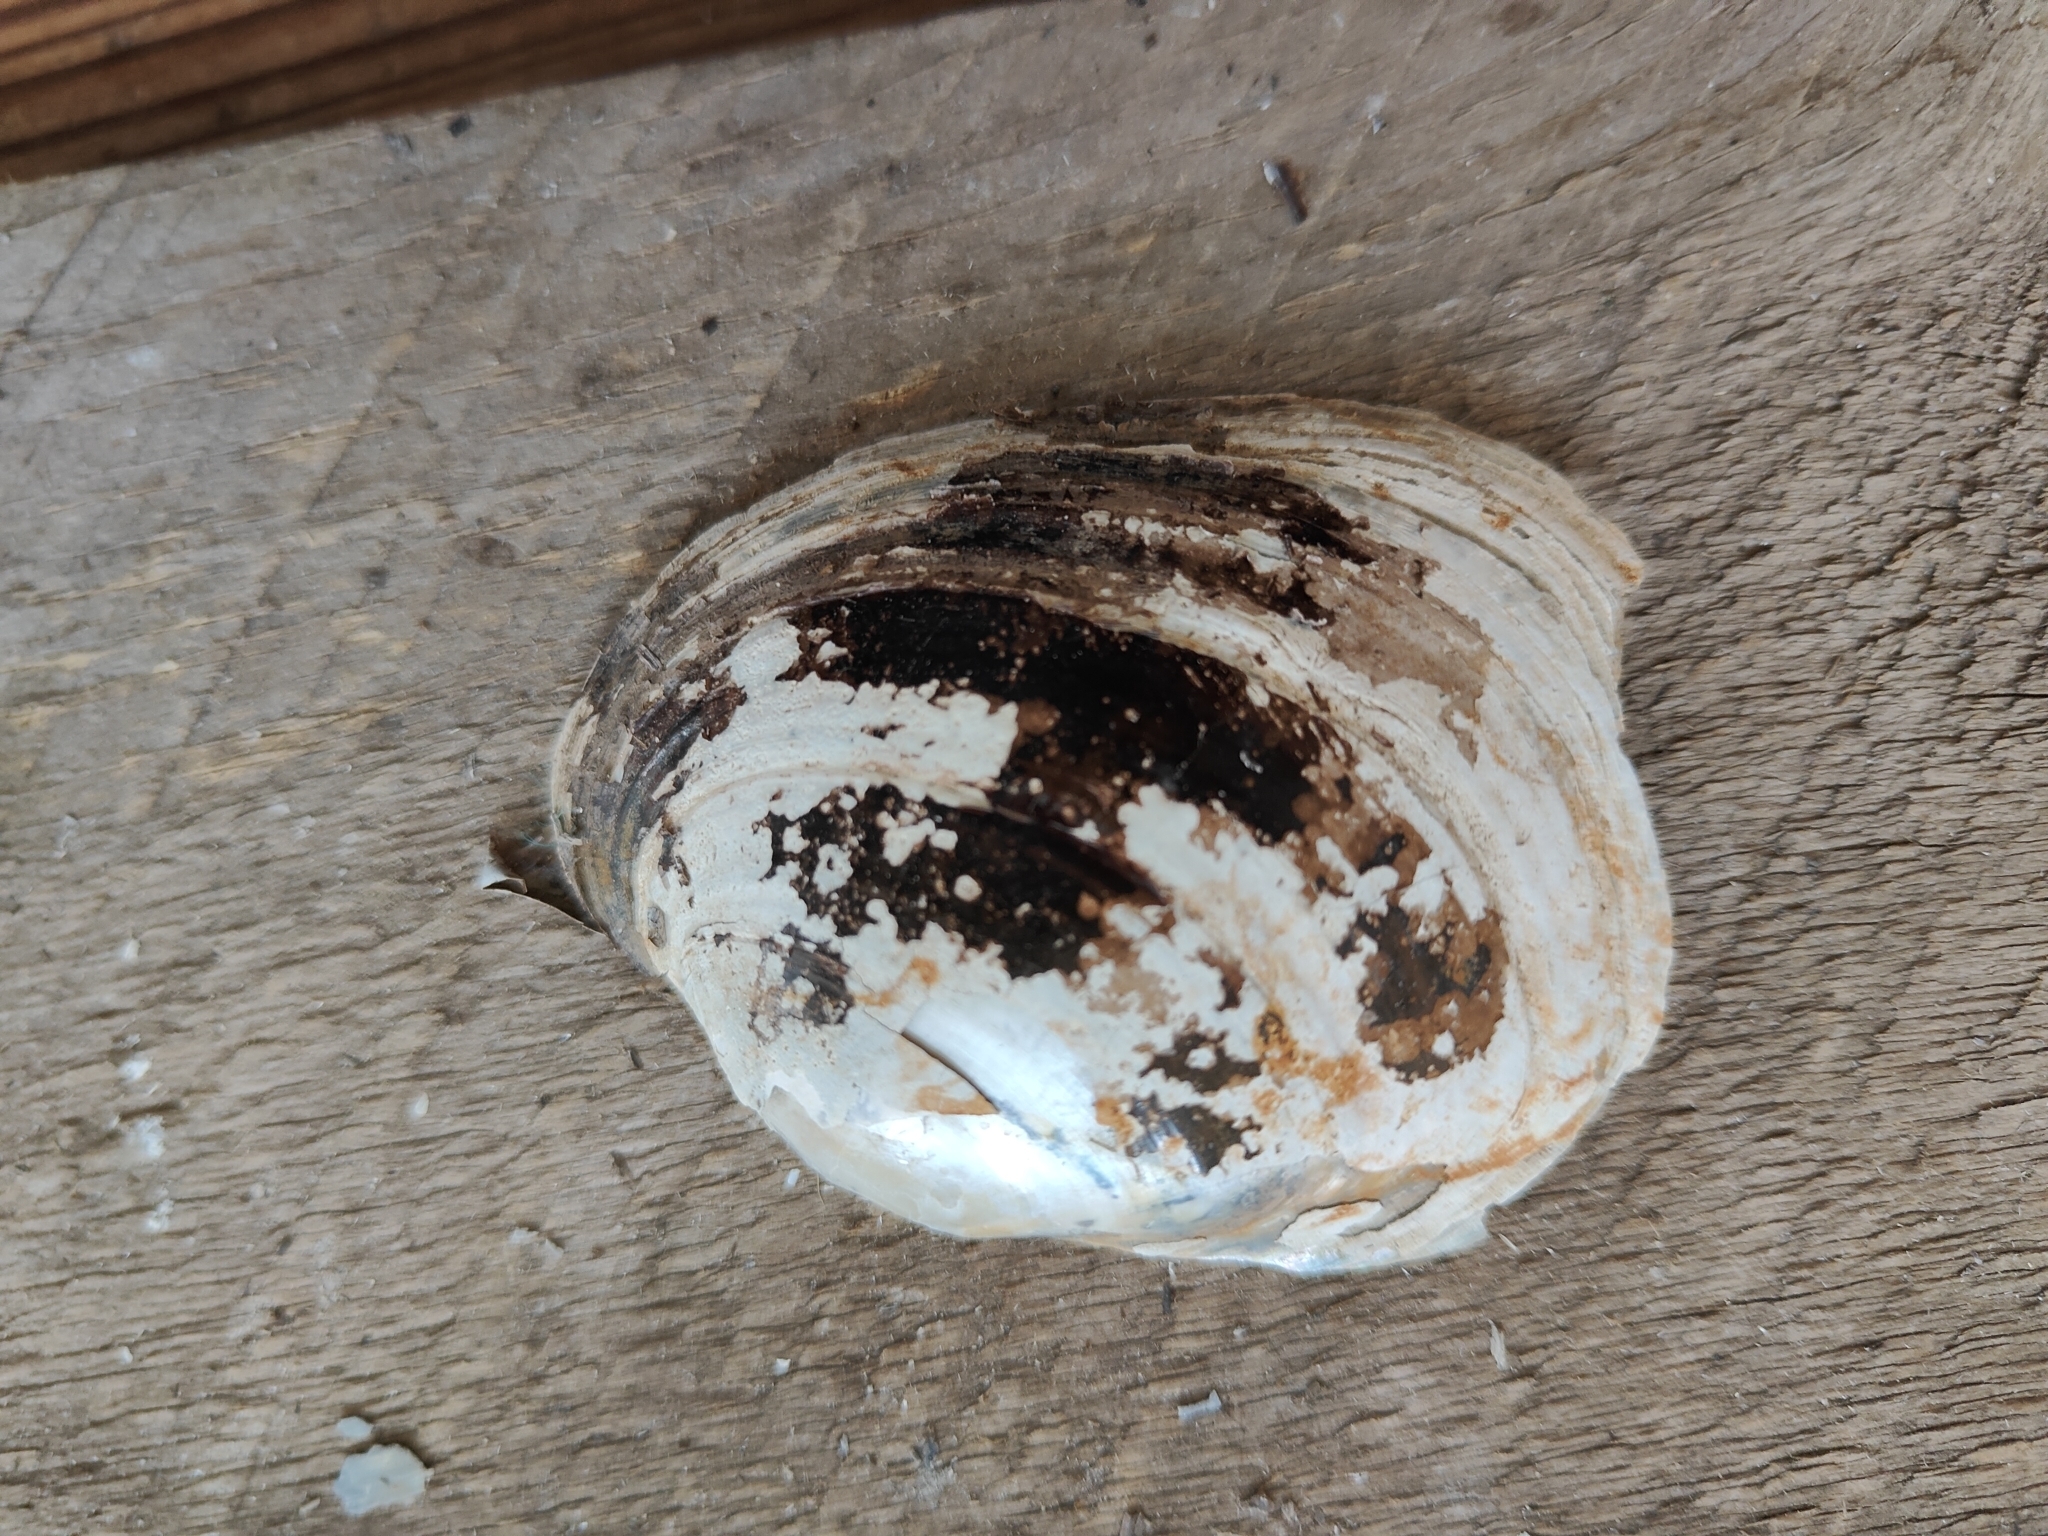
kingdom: Animalia
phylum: Mollusca
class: Bivalvia
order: Unionida
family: Unionidae
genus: Lampsilis
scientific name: Lampsilis cardium
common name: Plain pocketbook
